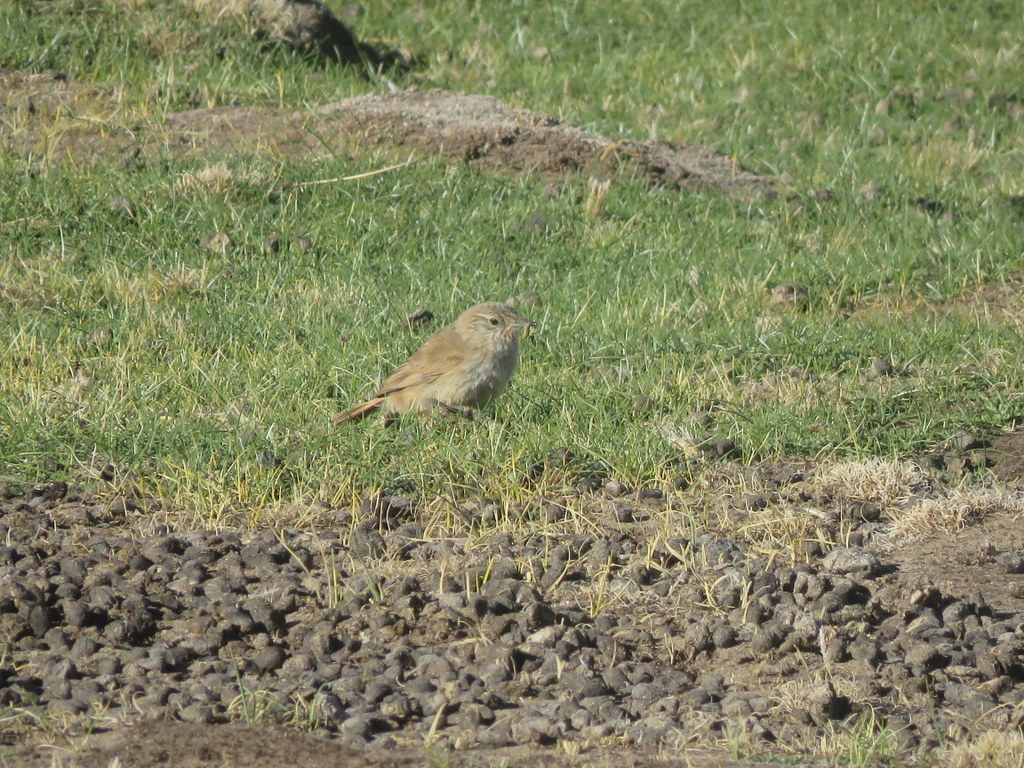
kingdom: Animalia
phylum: Chordata
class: Aves
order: Passeriformes
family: Furnariidae
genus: Asthenes
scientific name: Asthenes modesta
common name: Cordilleran canastero
